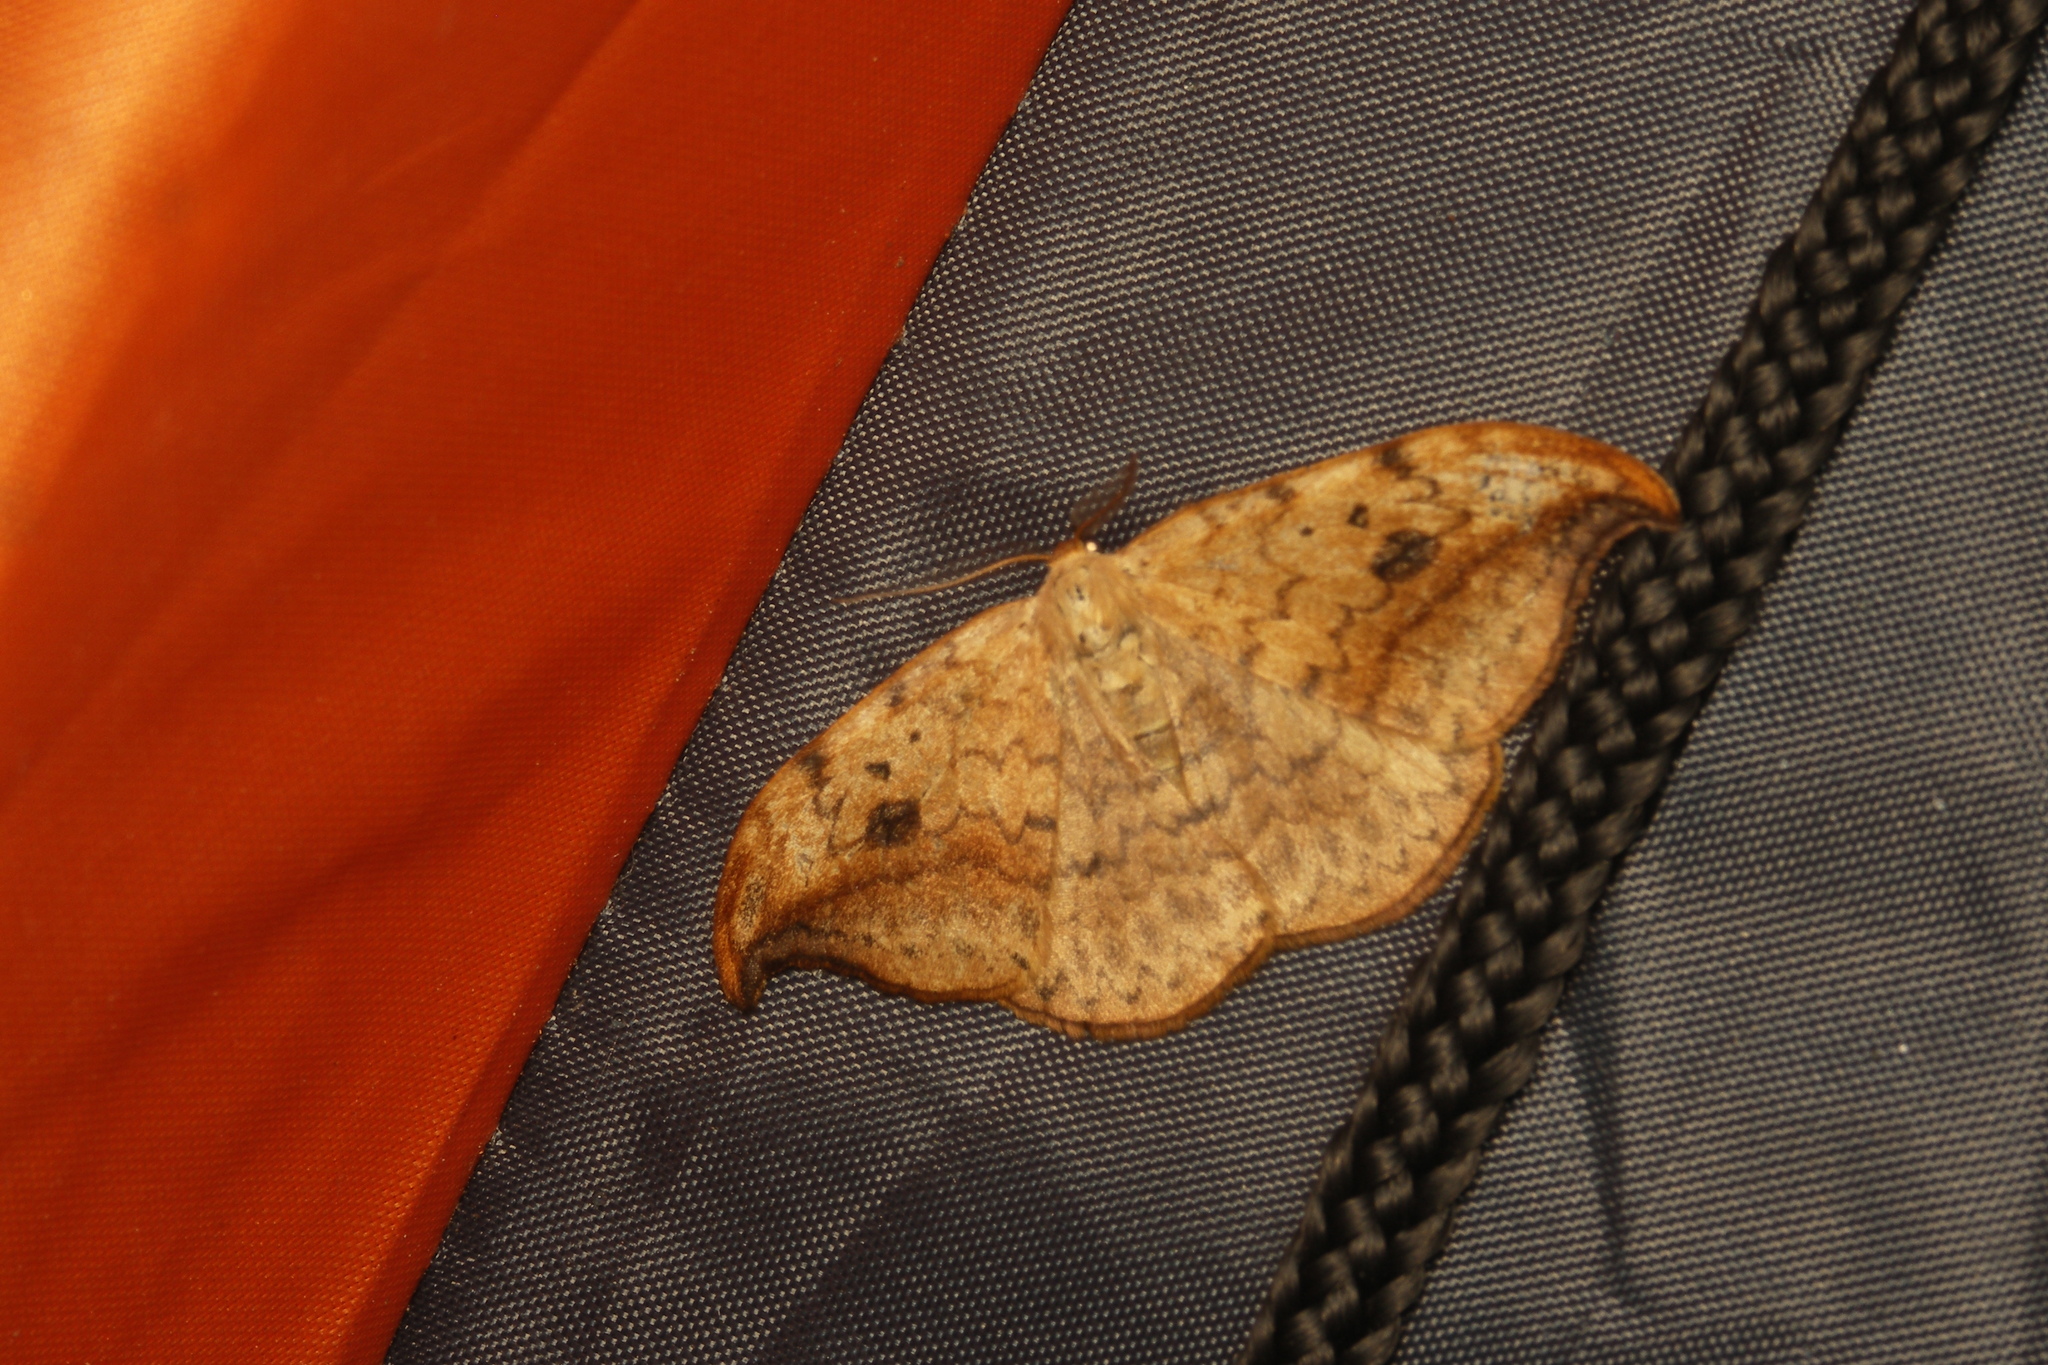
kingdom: Animalia
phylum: Arthropoda
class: Insecta
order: Lepidoptera
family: Drepanidae
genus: Drepana
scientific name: Drepana falcataria
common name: Pebble hook-tip
